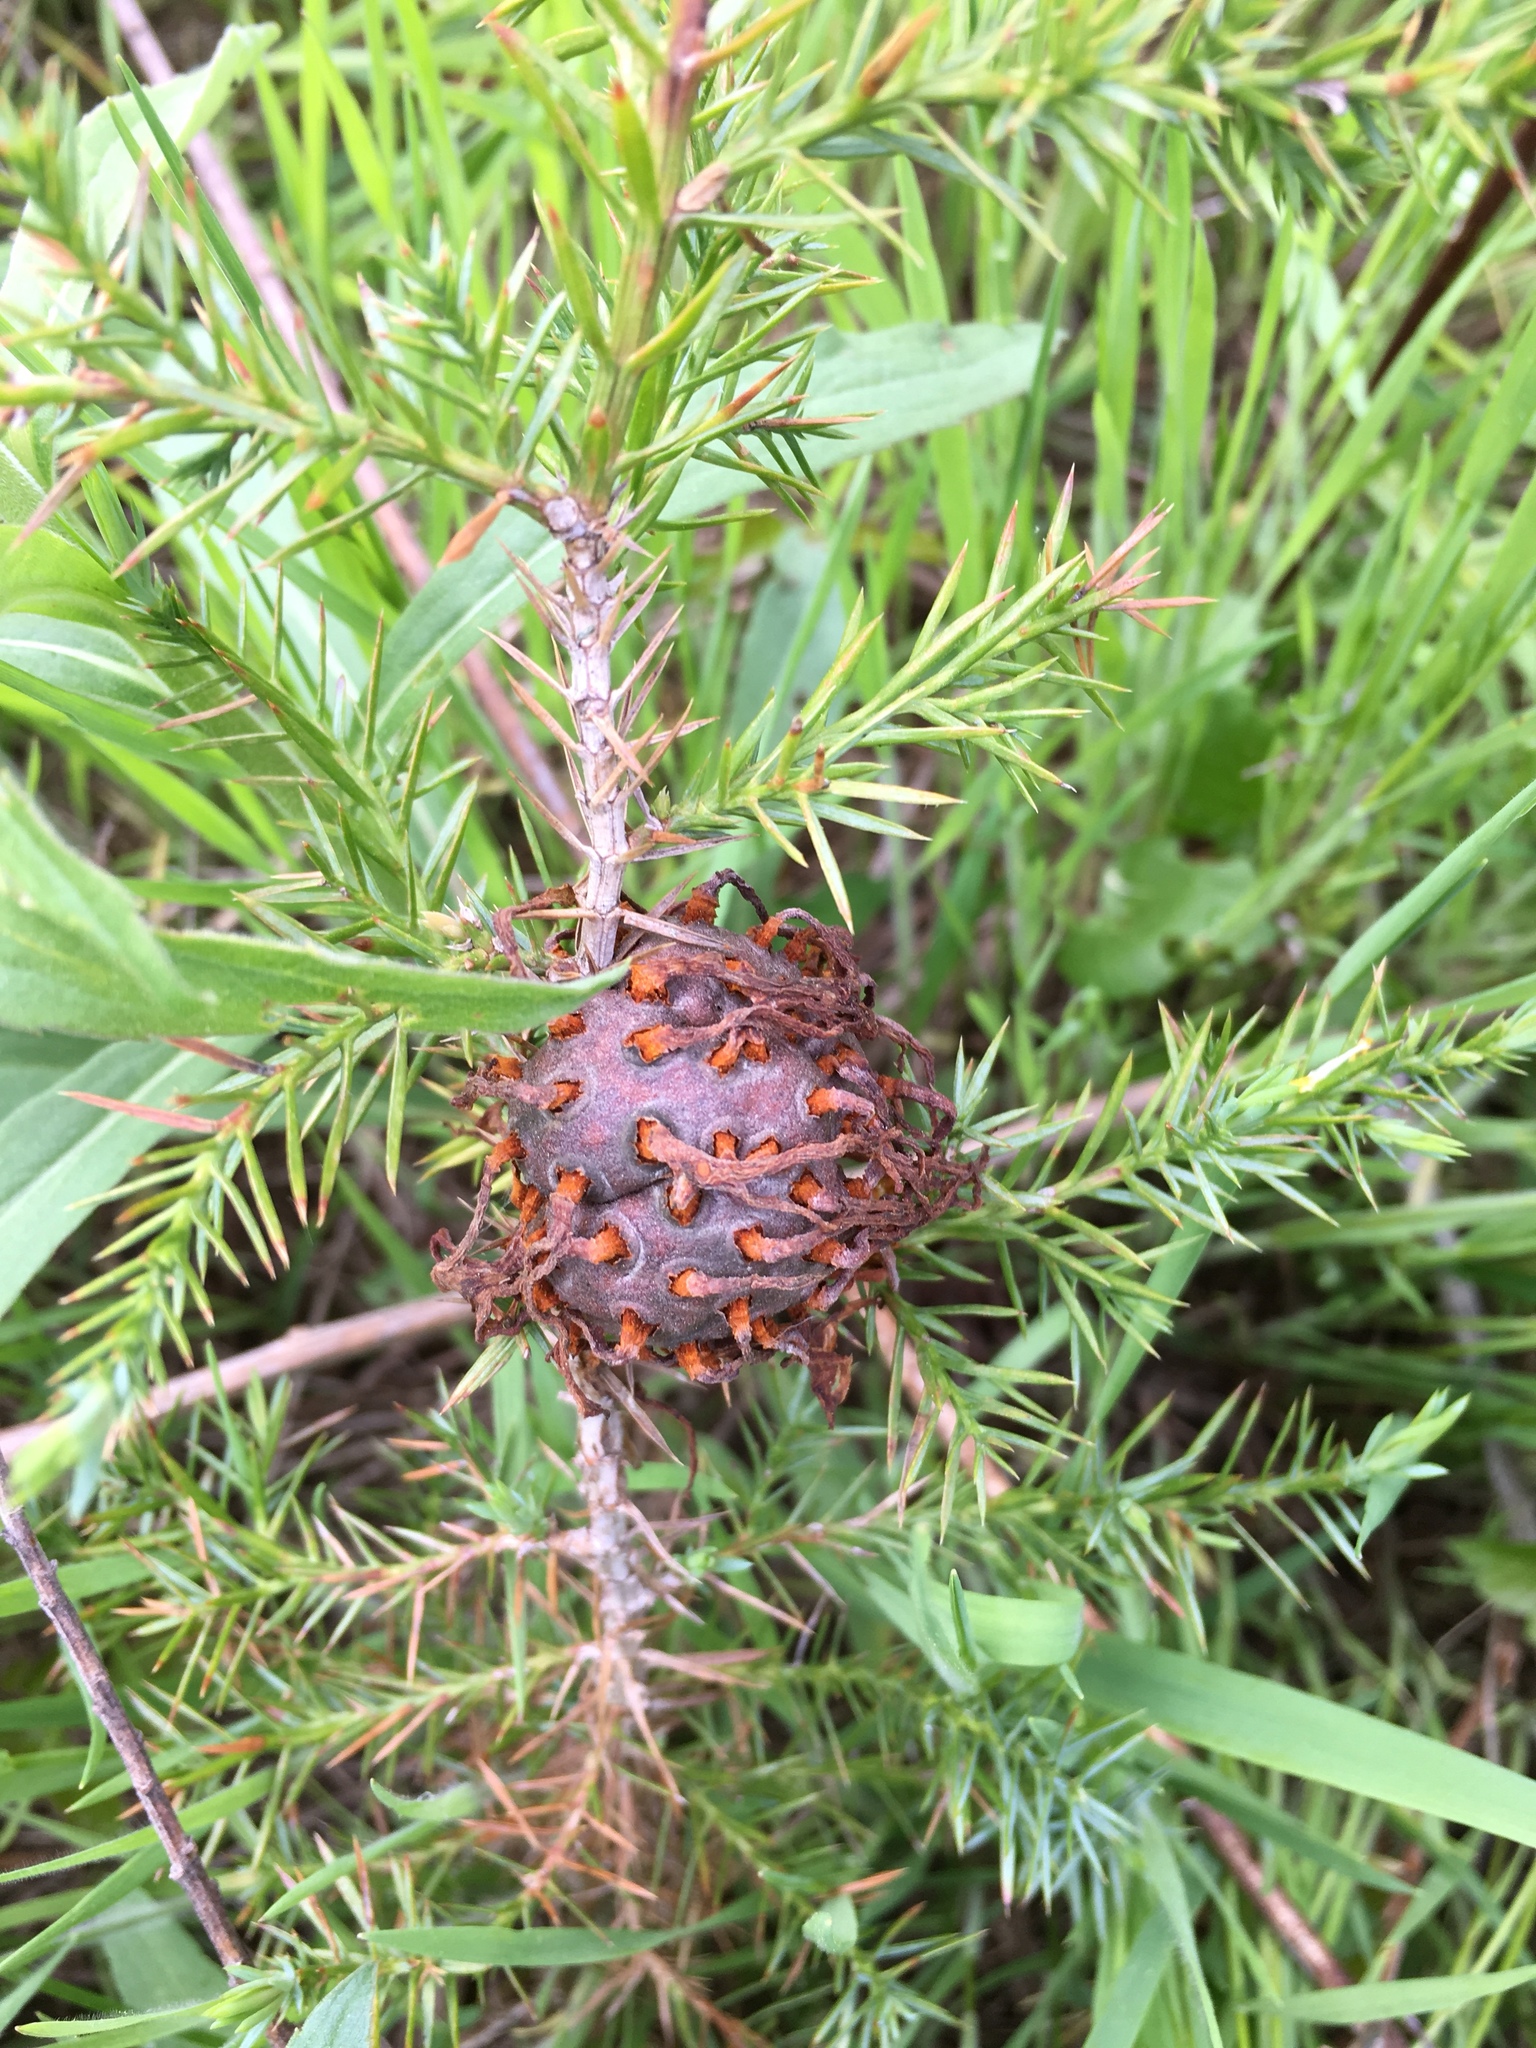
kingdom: Fungi
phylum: Basidiomycota
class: Pucciniomycetes
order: Pucciniales
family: Gymnosporangiaceae
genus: Gymnosporangium
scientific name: Gymnosporangium juniperi-virginianae
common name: Juniper-apple rust
